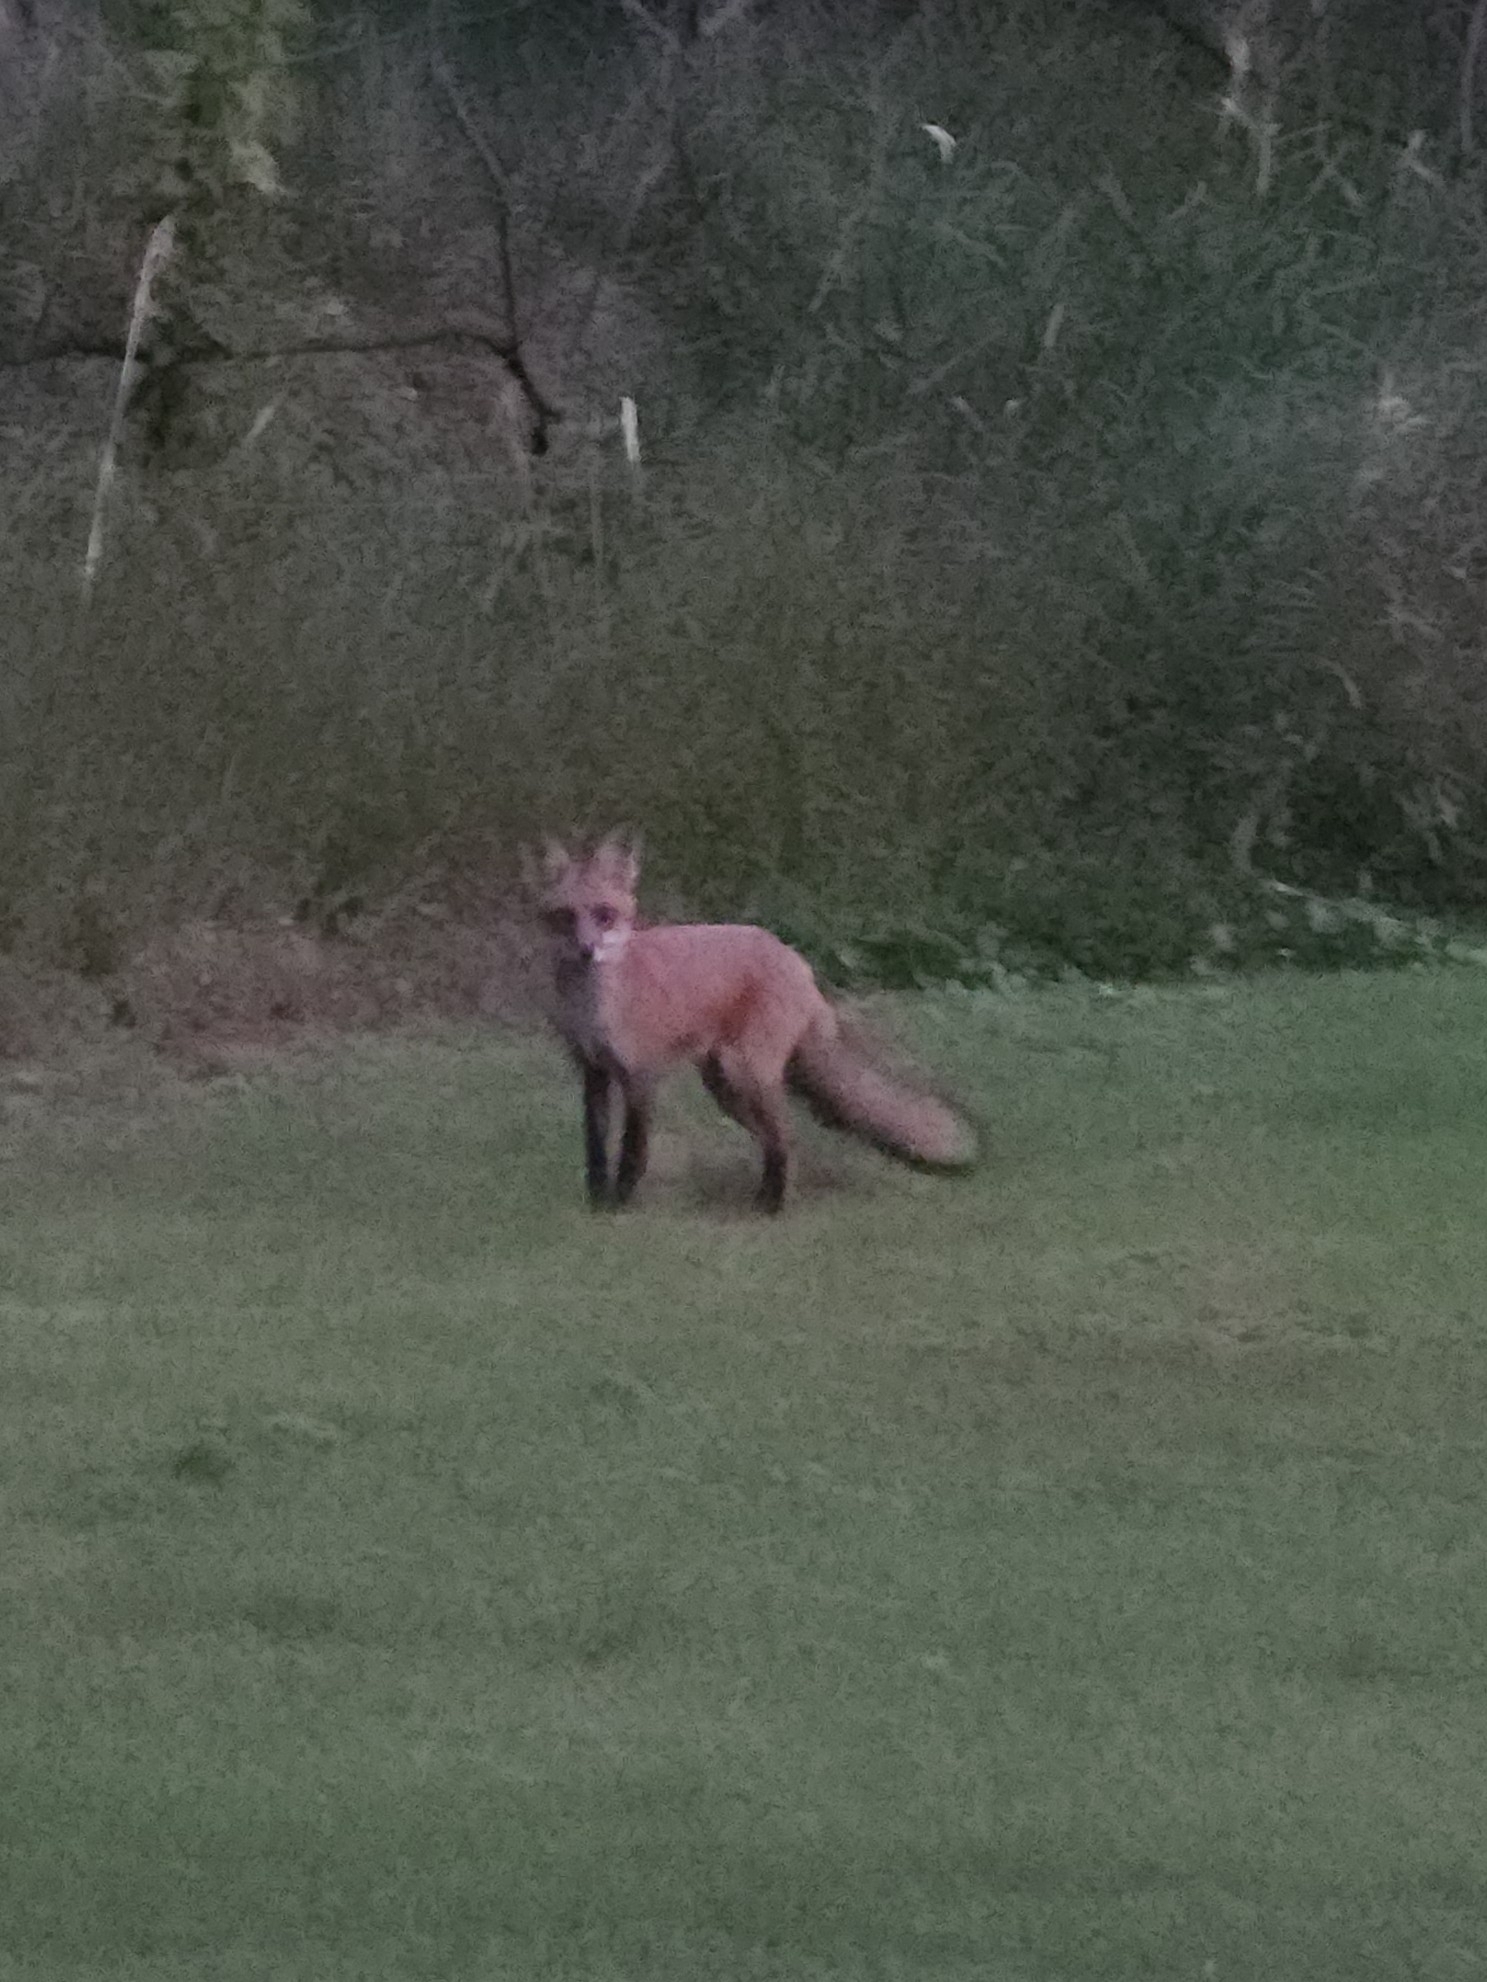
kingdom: Animalia
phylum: Chordata
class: Mammalia
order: Carnivora
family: Canidae
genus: Vulpes
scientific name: Vulpes vulpes
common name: Red fox
